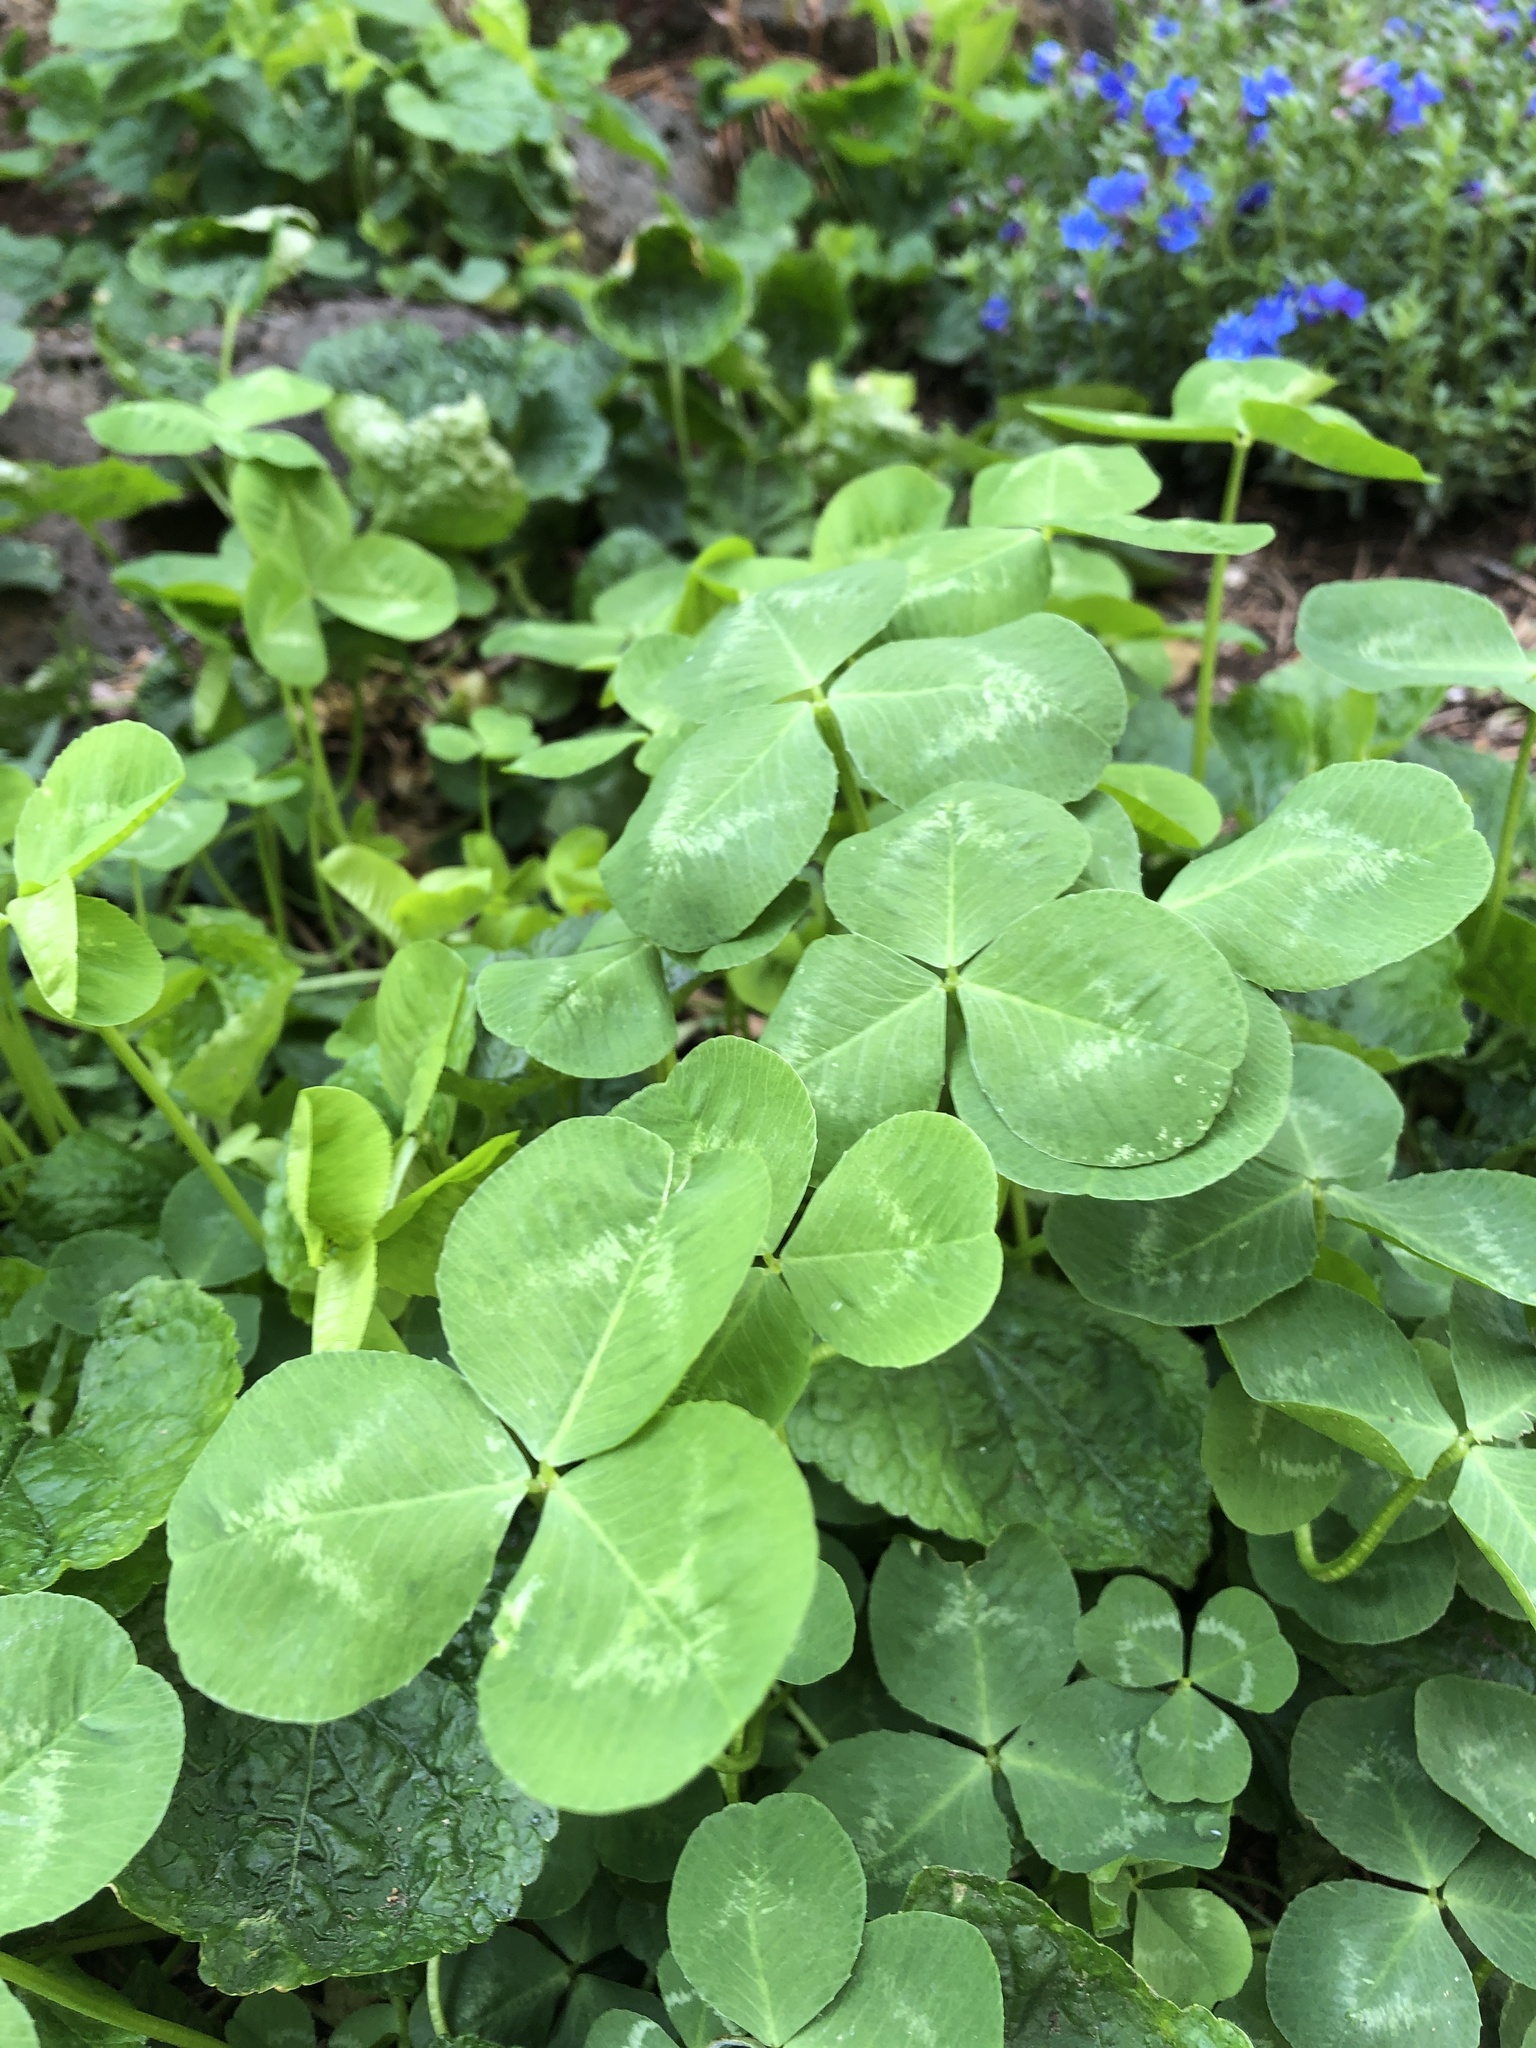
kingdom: Plantae
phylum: Tracheophyta
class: Magnoliopsida
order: Fabales
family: Fabaceae
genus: Trifolium
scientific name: Trifolium repens
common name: White clover
